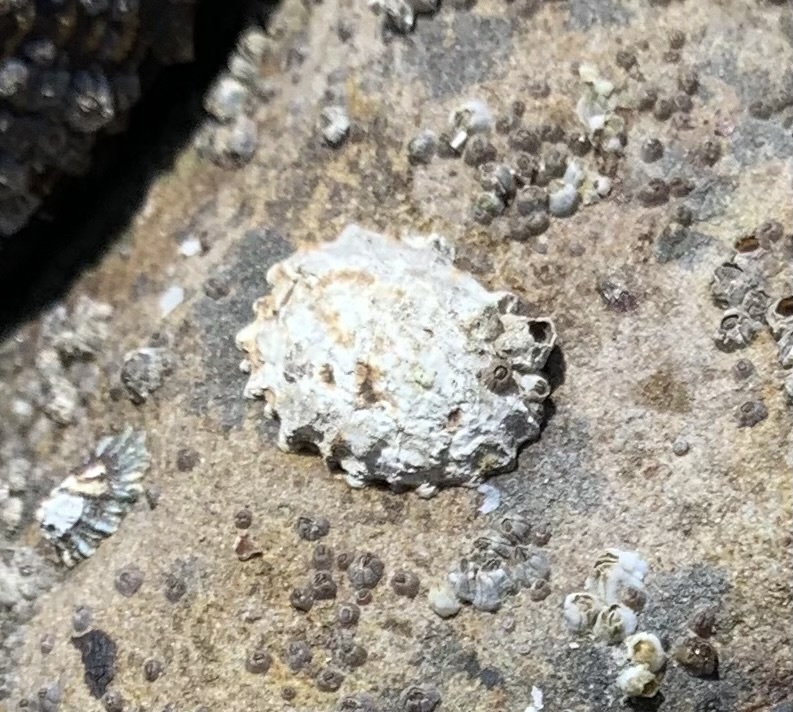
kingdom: Animalia
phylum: Mollusca
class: Gastropoda
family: Lottiidae
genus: Lottia
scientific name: Lottia digitalis
